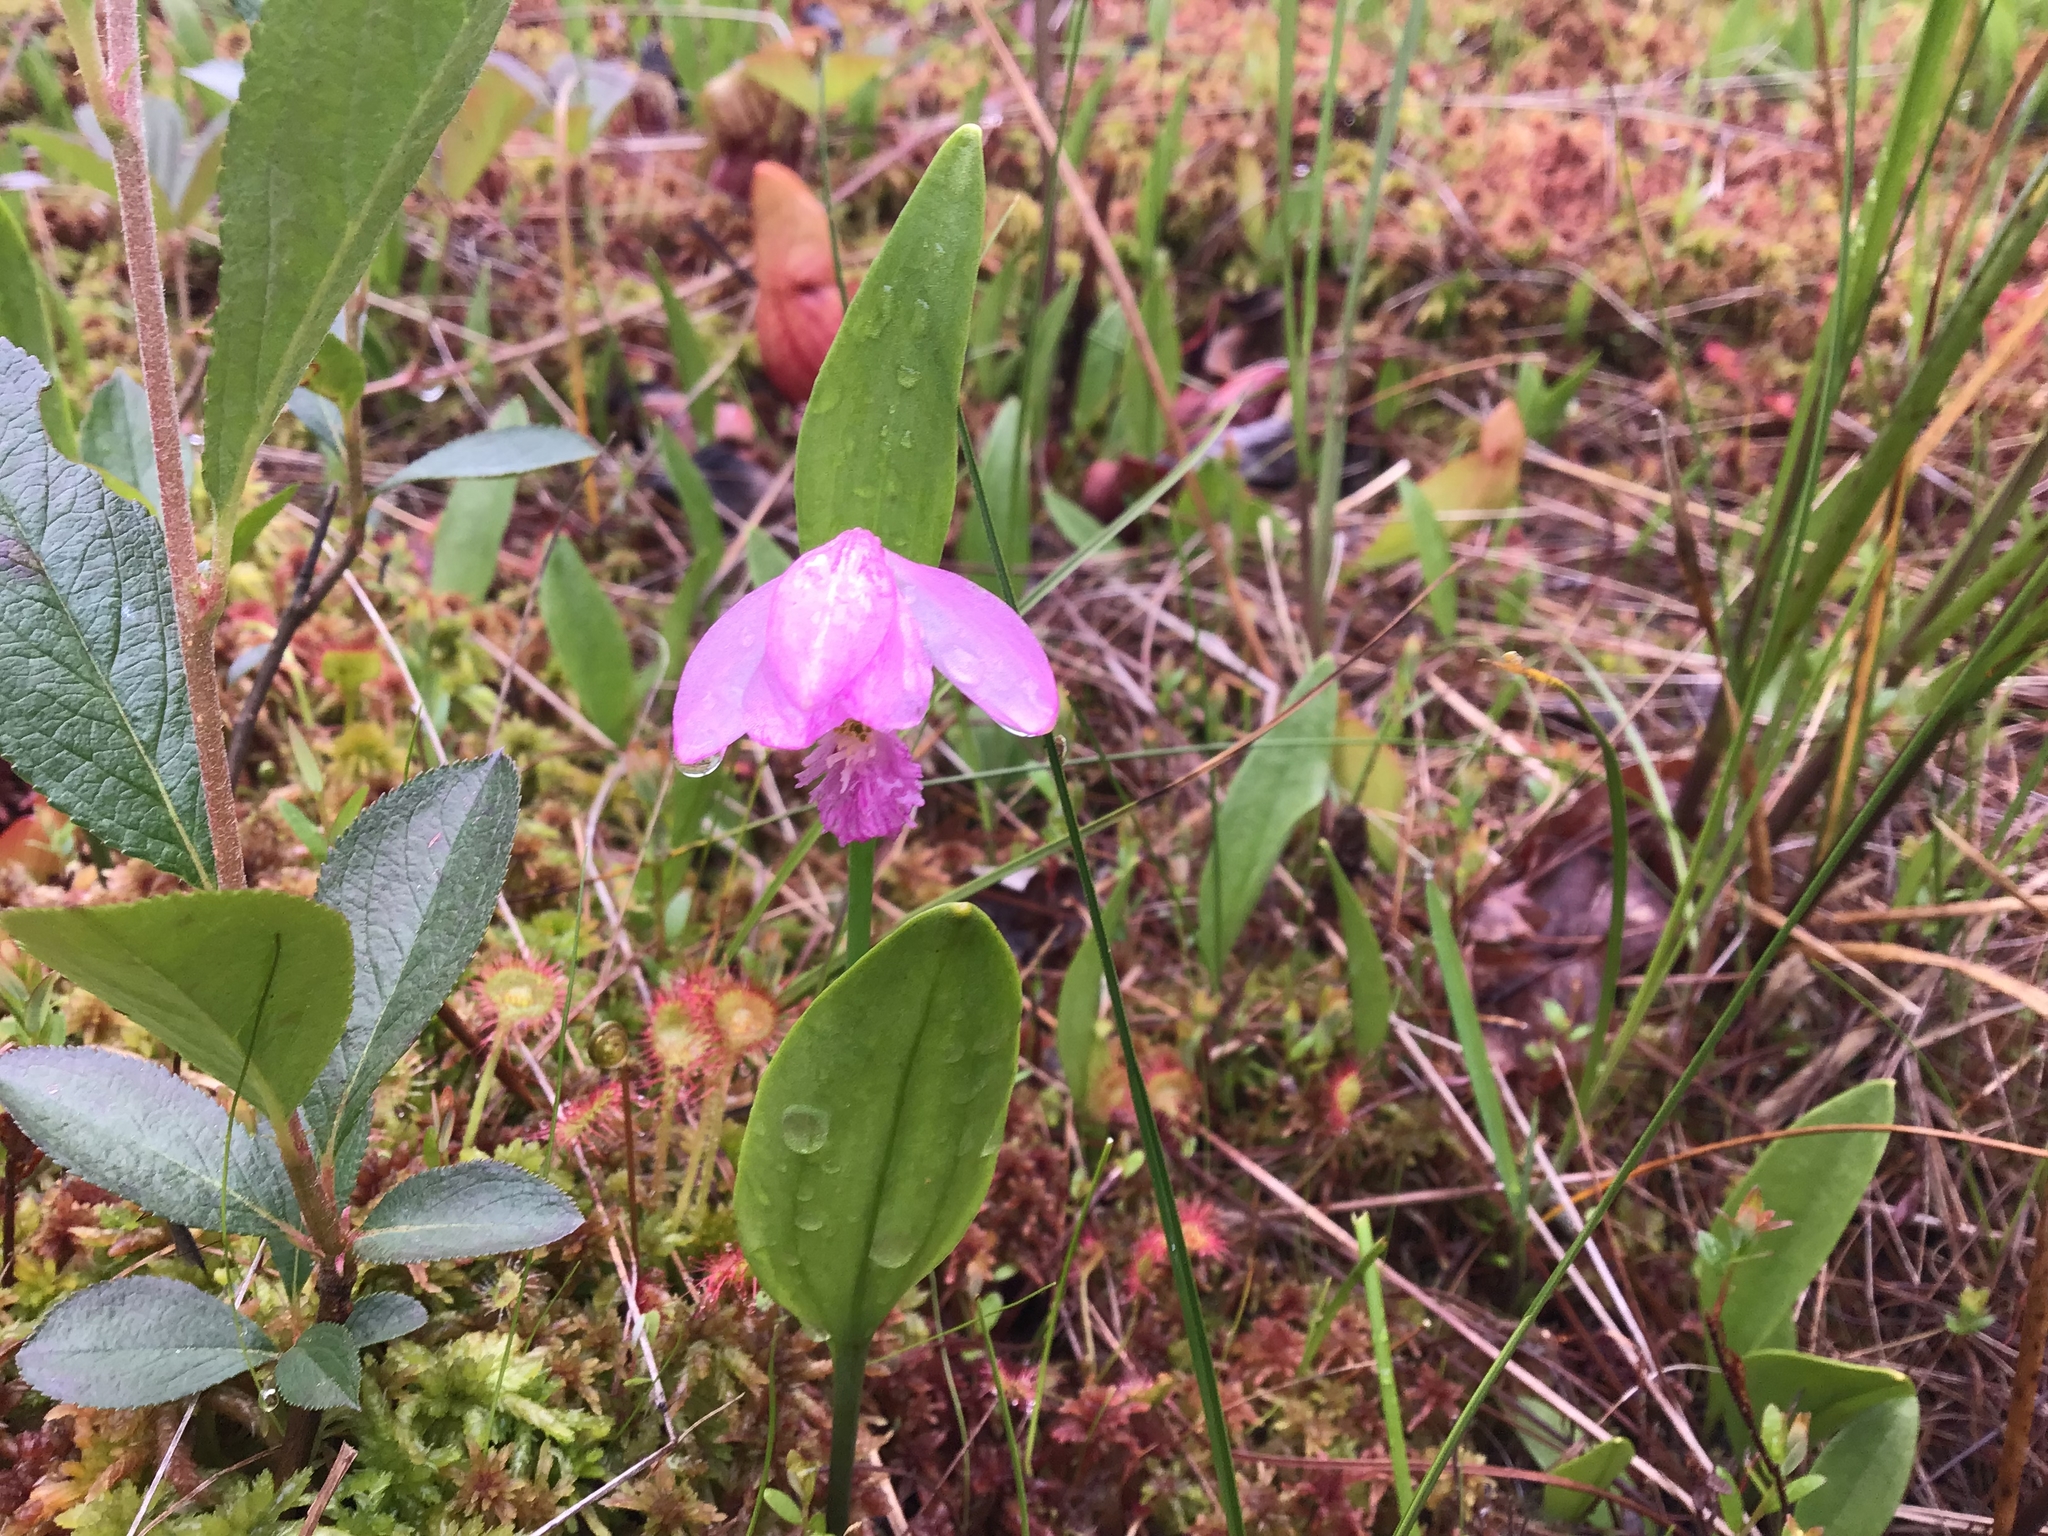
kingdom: Plantae
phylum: Tracheophyta
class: Liliopsida
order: Asparagales
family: Orchidaceae
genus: Pogonia
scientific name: Pogonia ophioglossoides
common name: Rose pogonia
